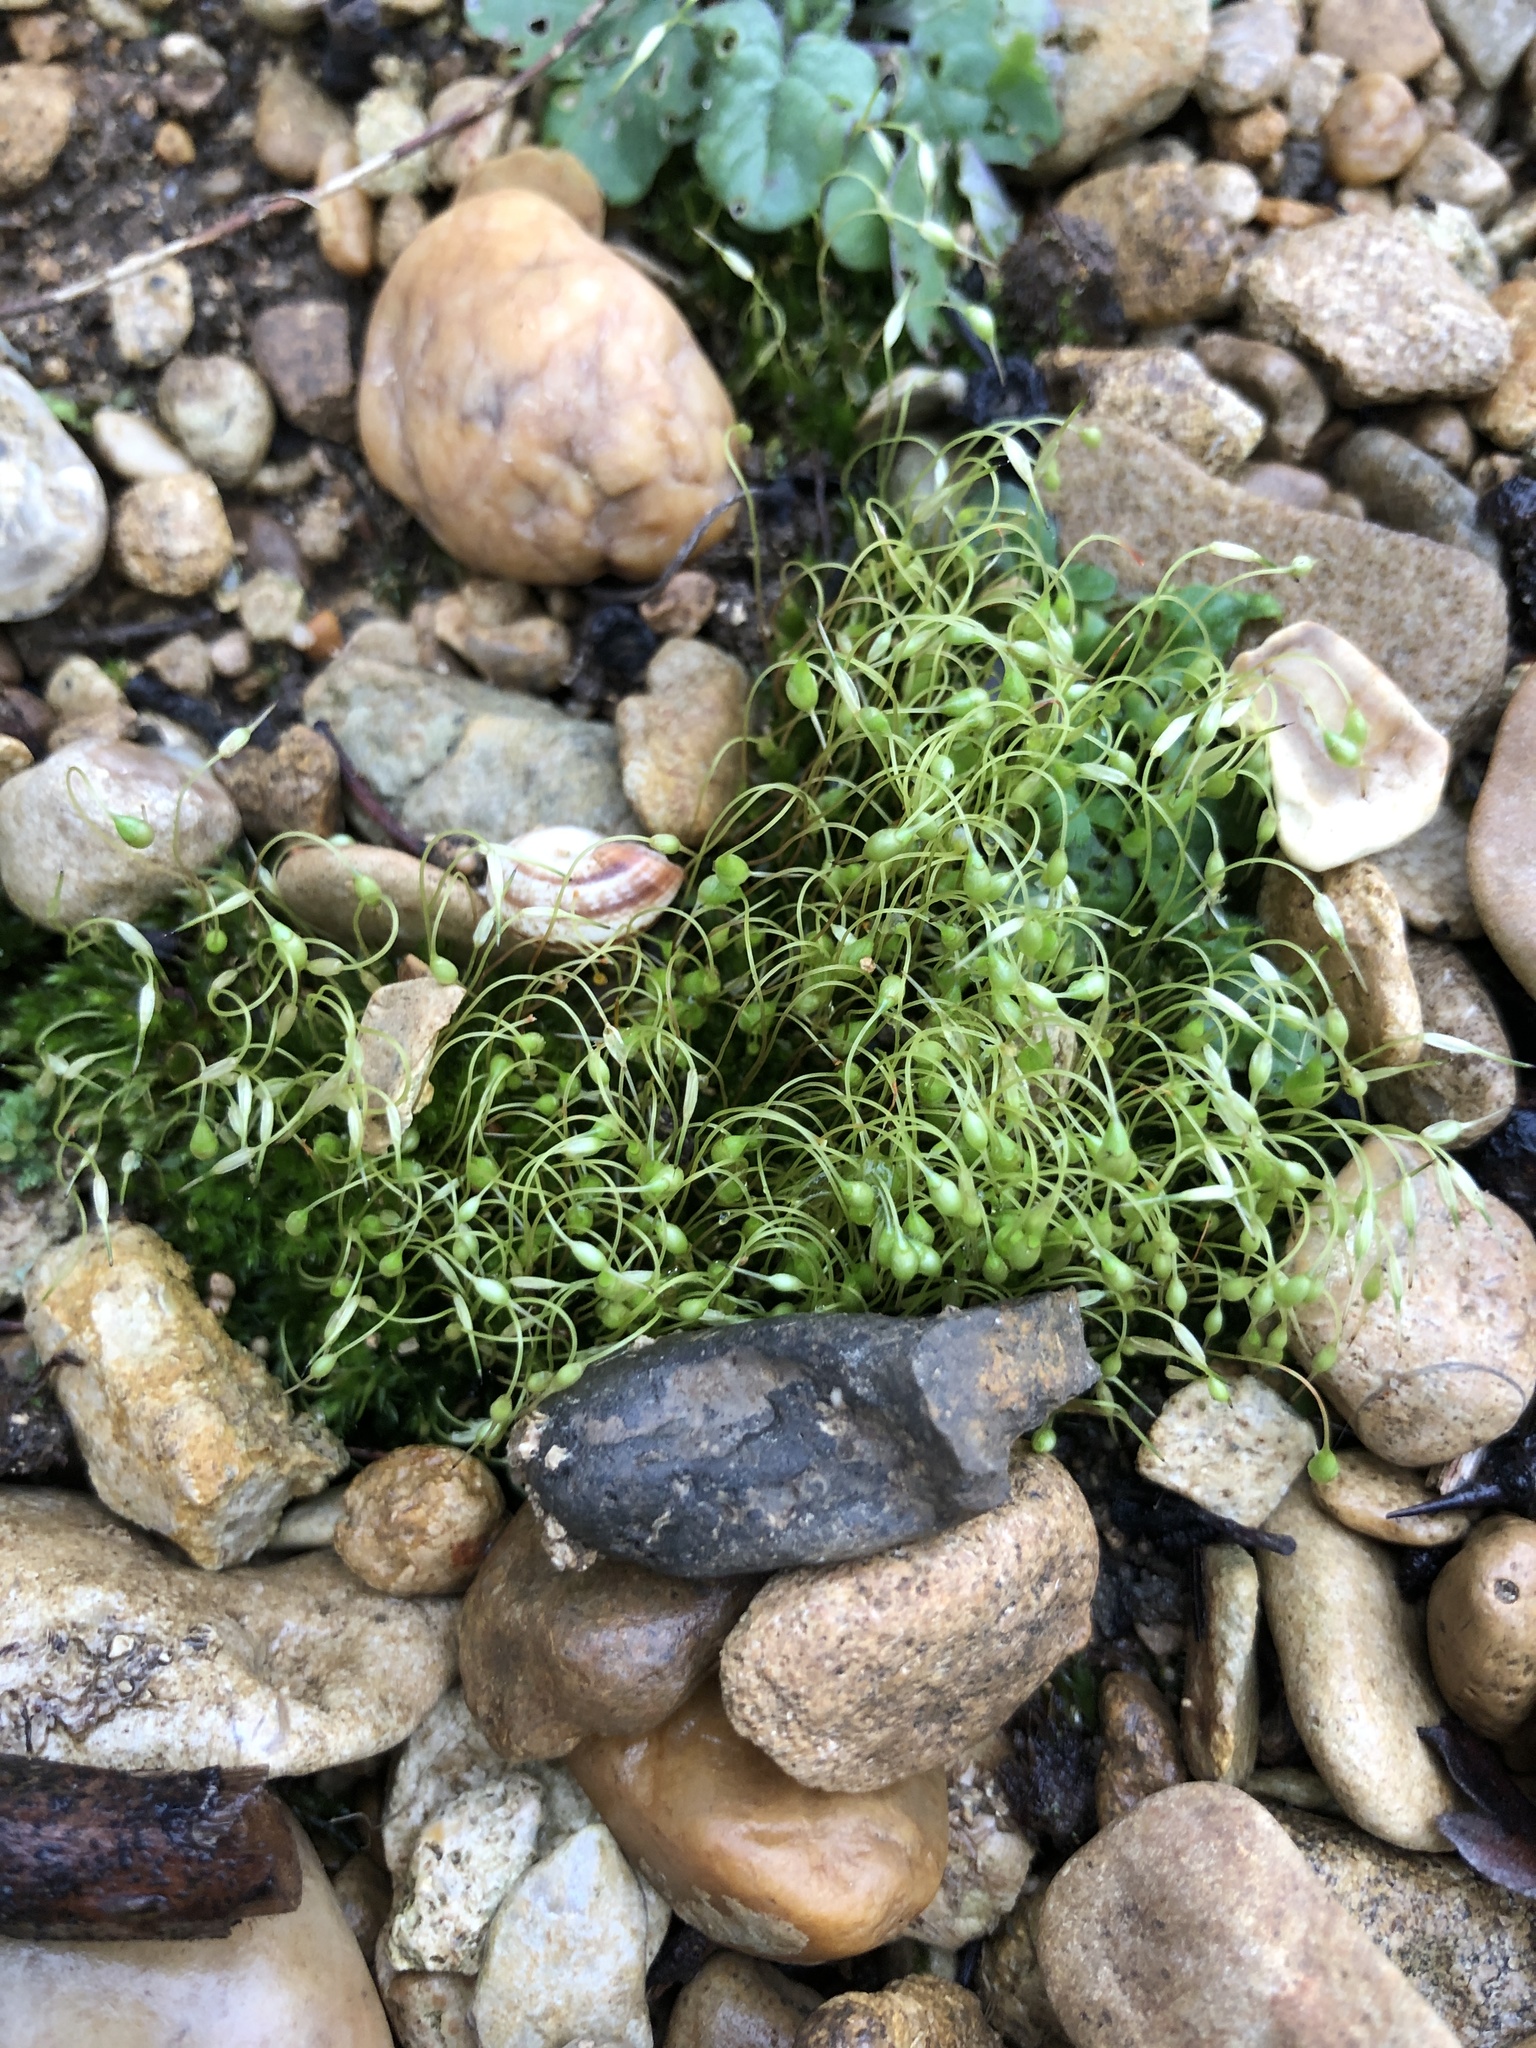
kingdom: Plantae
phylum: Bryophyta
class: Bryopsida
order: Funariales
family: Funariaceae
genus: Funaria
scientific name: Funaria hygrometrica
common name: Common cord moss
